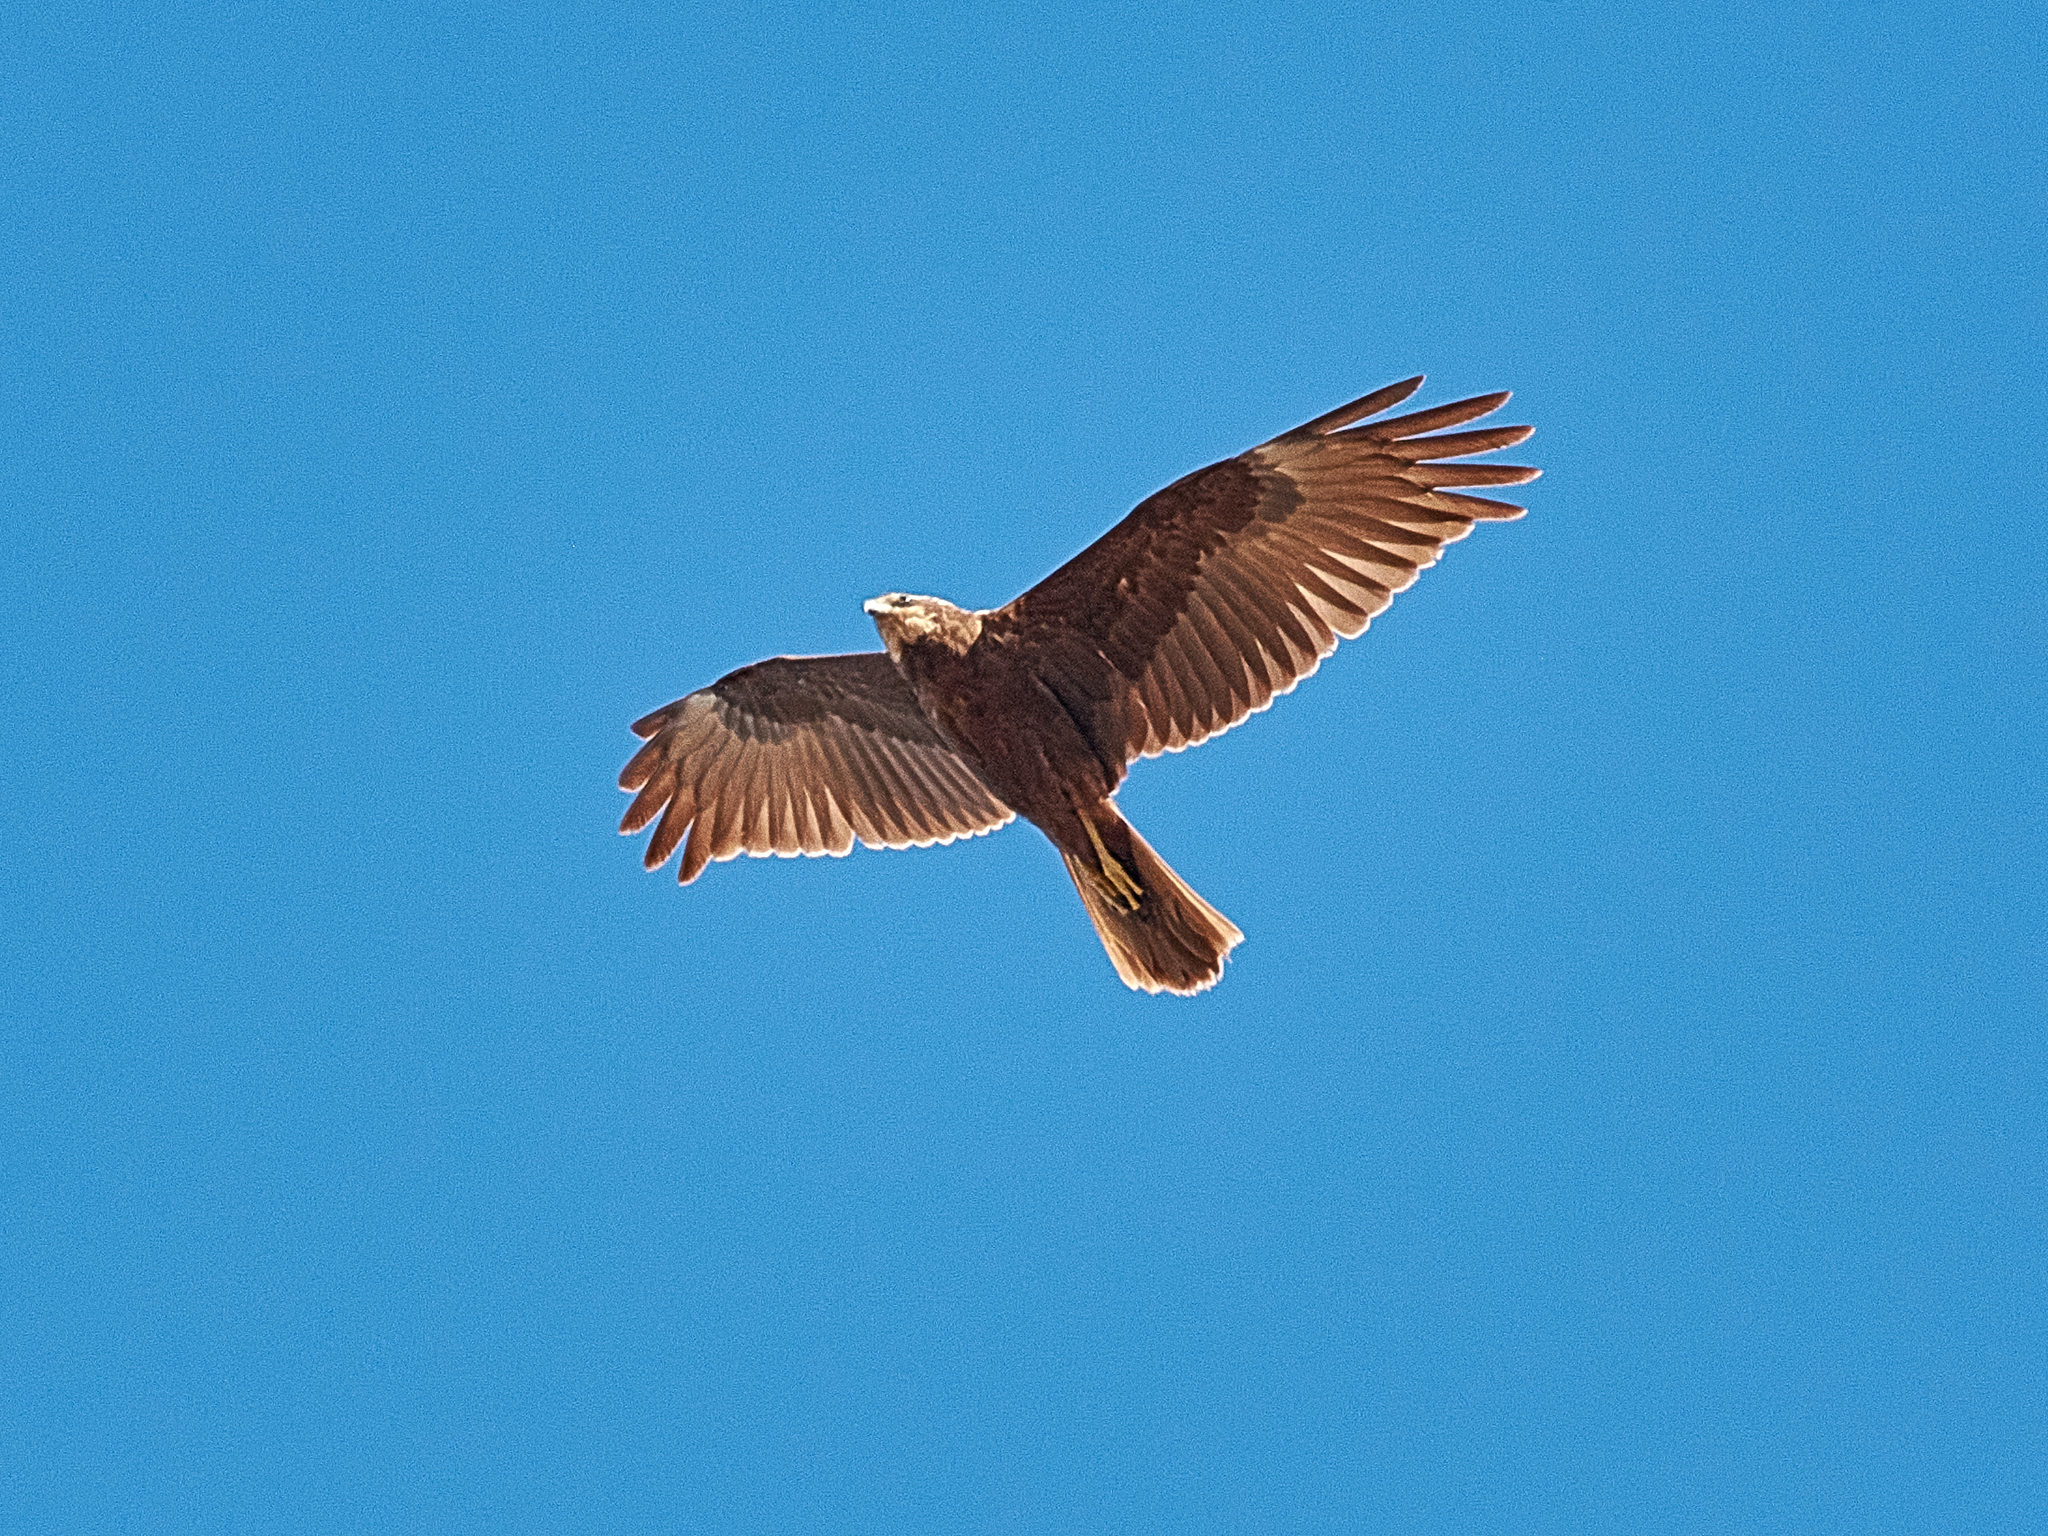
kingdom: Animalia
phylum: Chordata
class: Aves
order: Accipitriformes
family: Accipitridae
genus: Circus
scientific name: Circus aeruginosus
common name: Western marsh harrier
